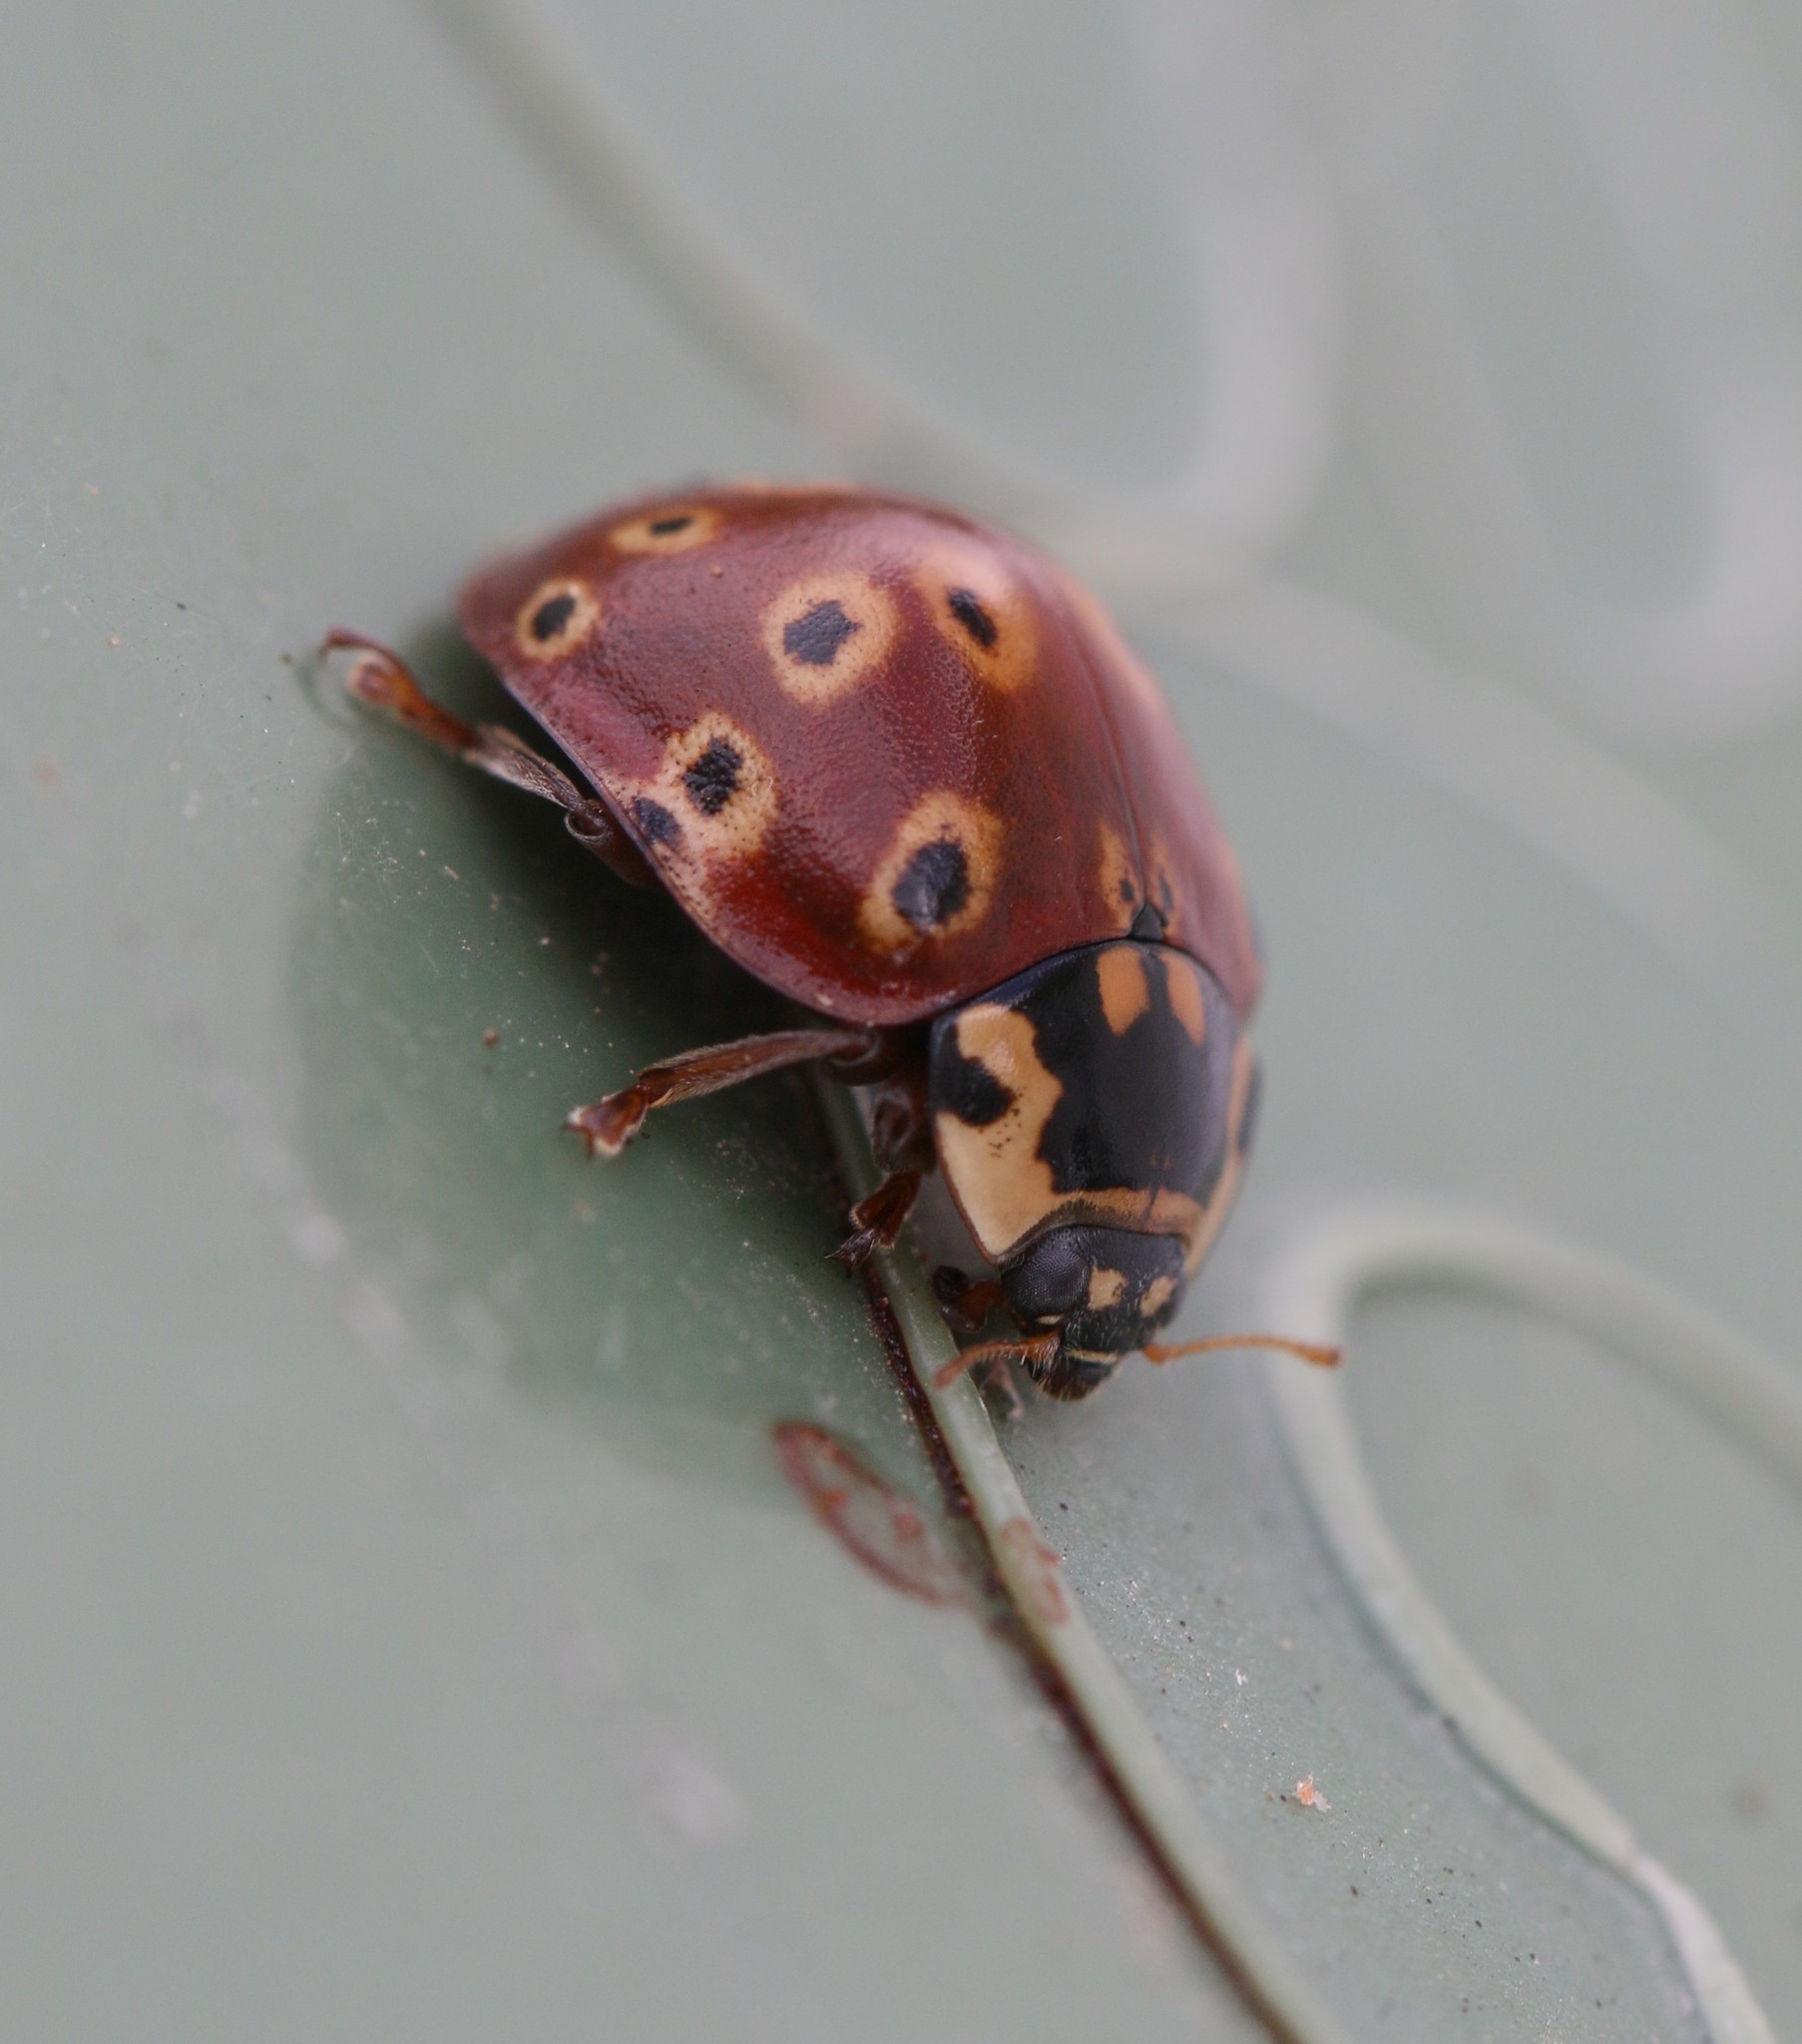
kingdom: Animalia
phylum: Arthropoda
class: Insecta
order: Coleoptera
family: Coccinellidae
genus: Anatis
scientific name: Anatis mali
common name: Eye-spotted lady beetle
